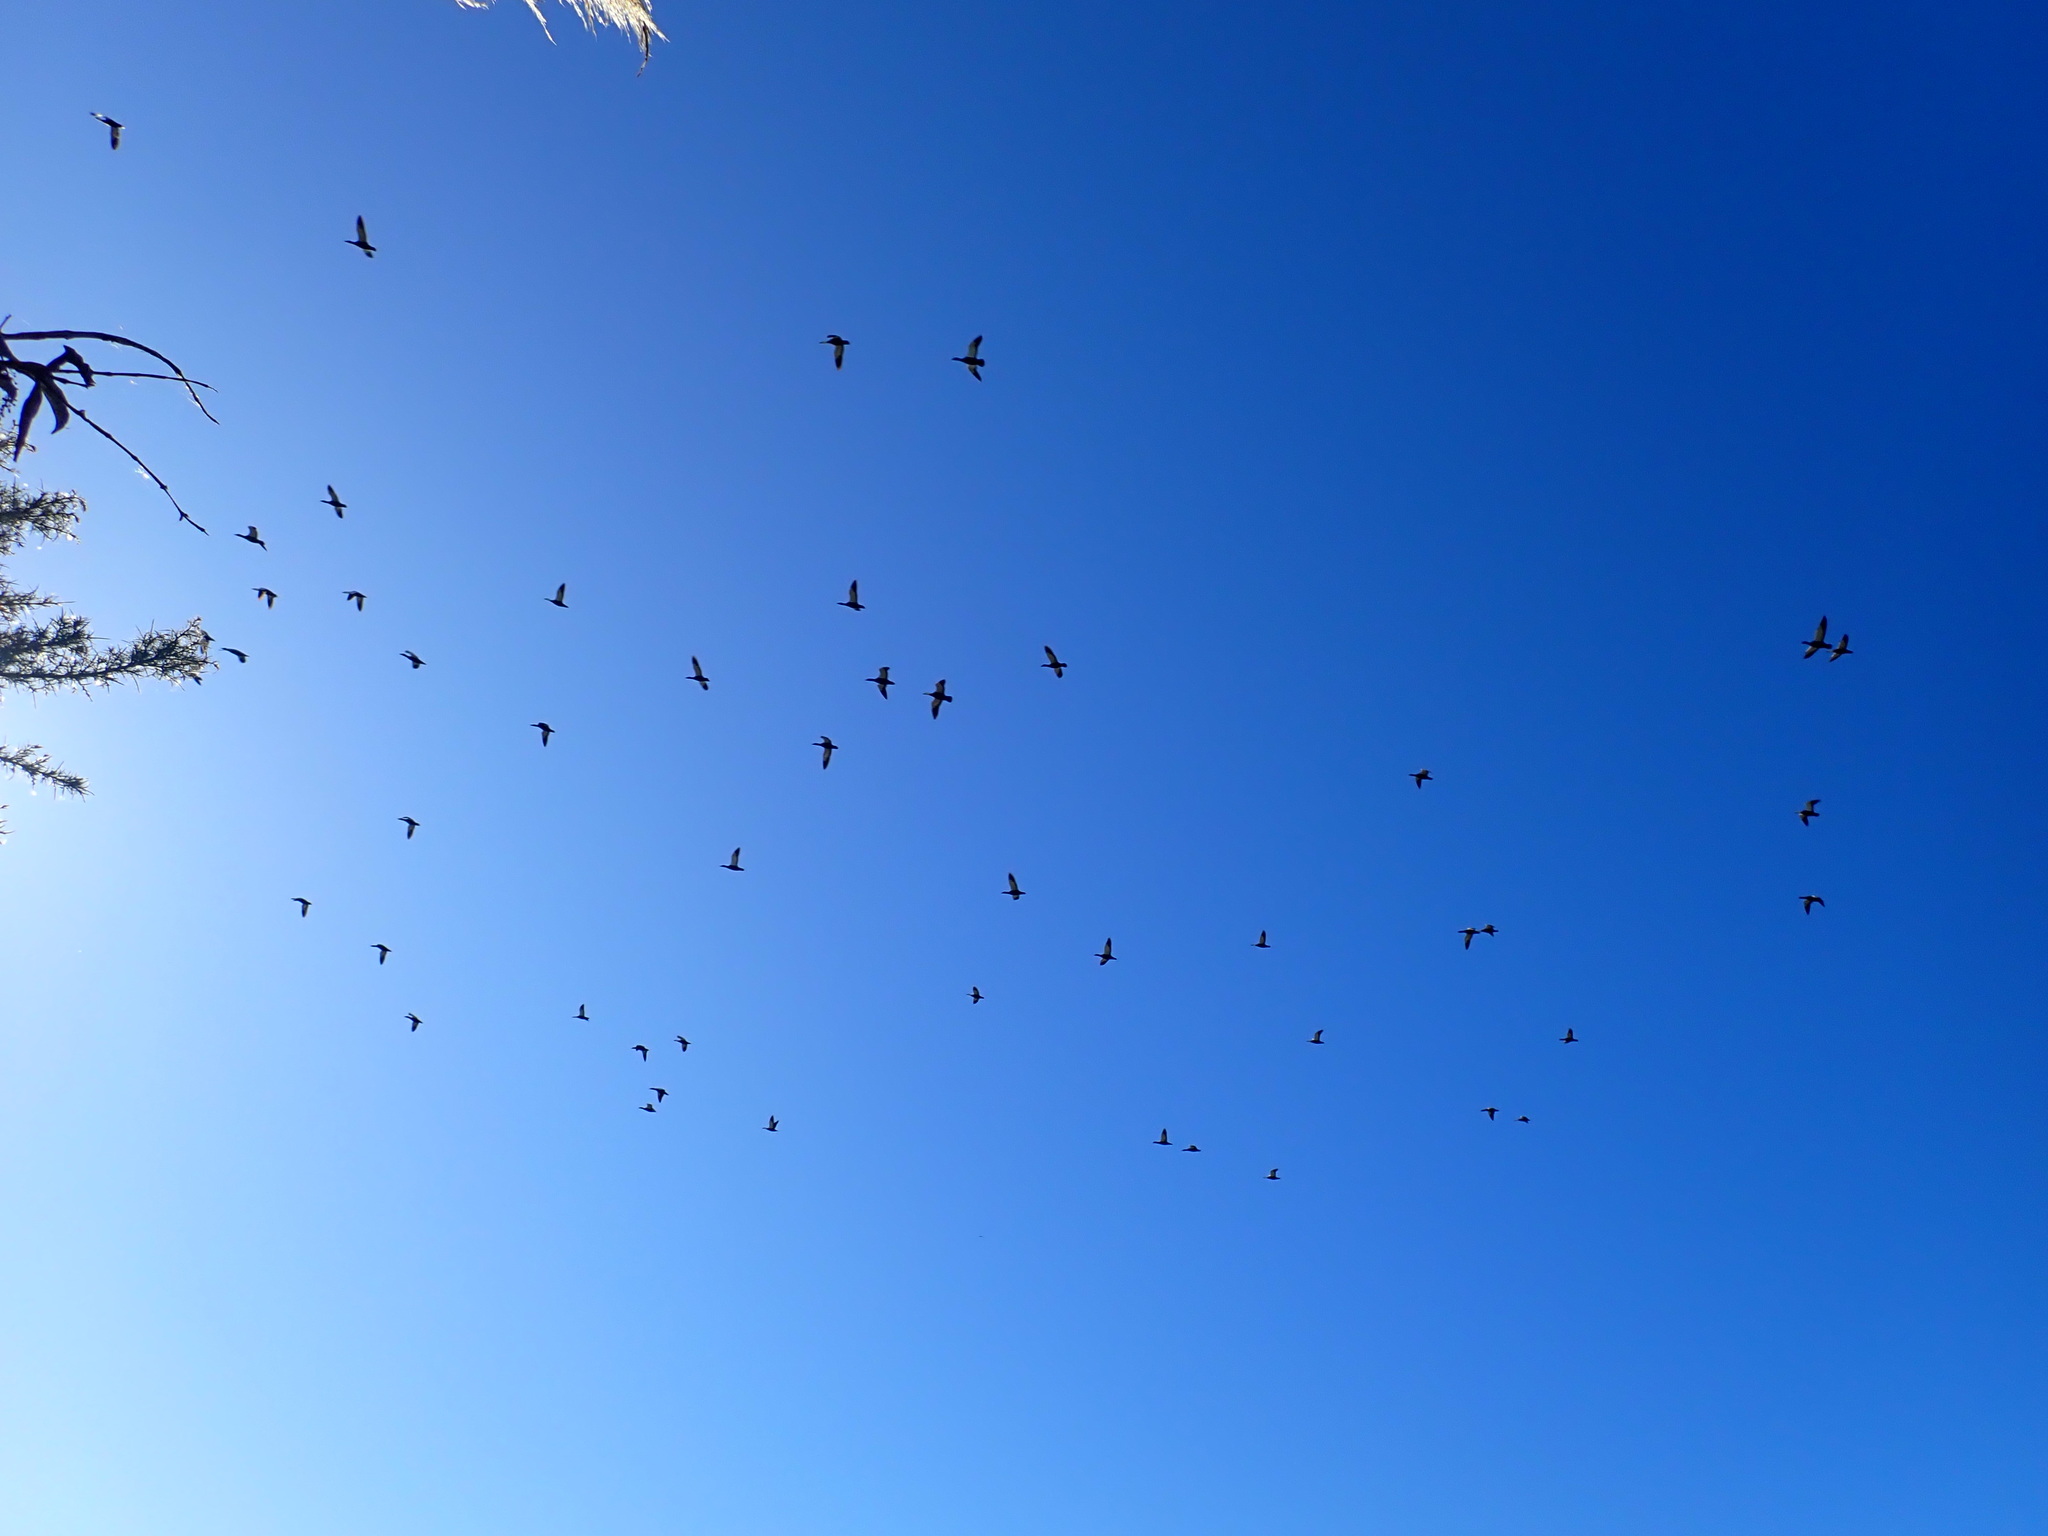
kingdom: Animalia
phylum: Chordata
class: Aves
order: Anseriformes
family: Anatidae
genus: Tadorna
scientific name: Tadorna variegata
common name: Paradise shelduck
